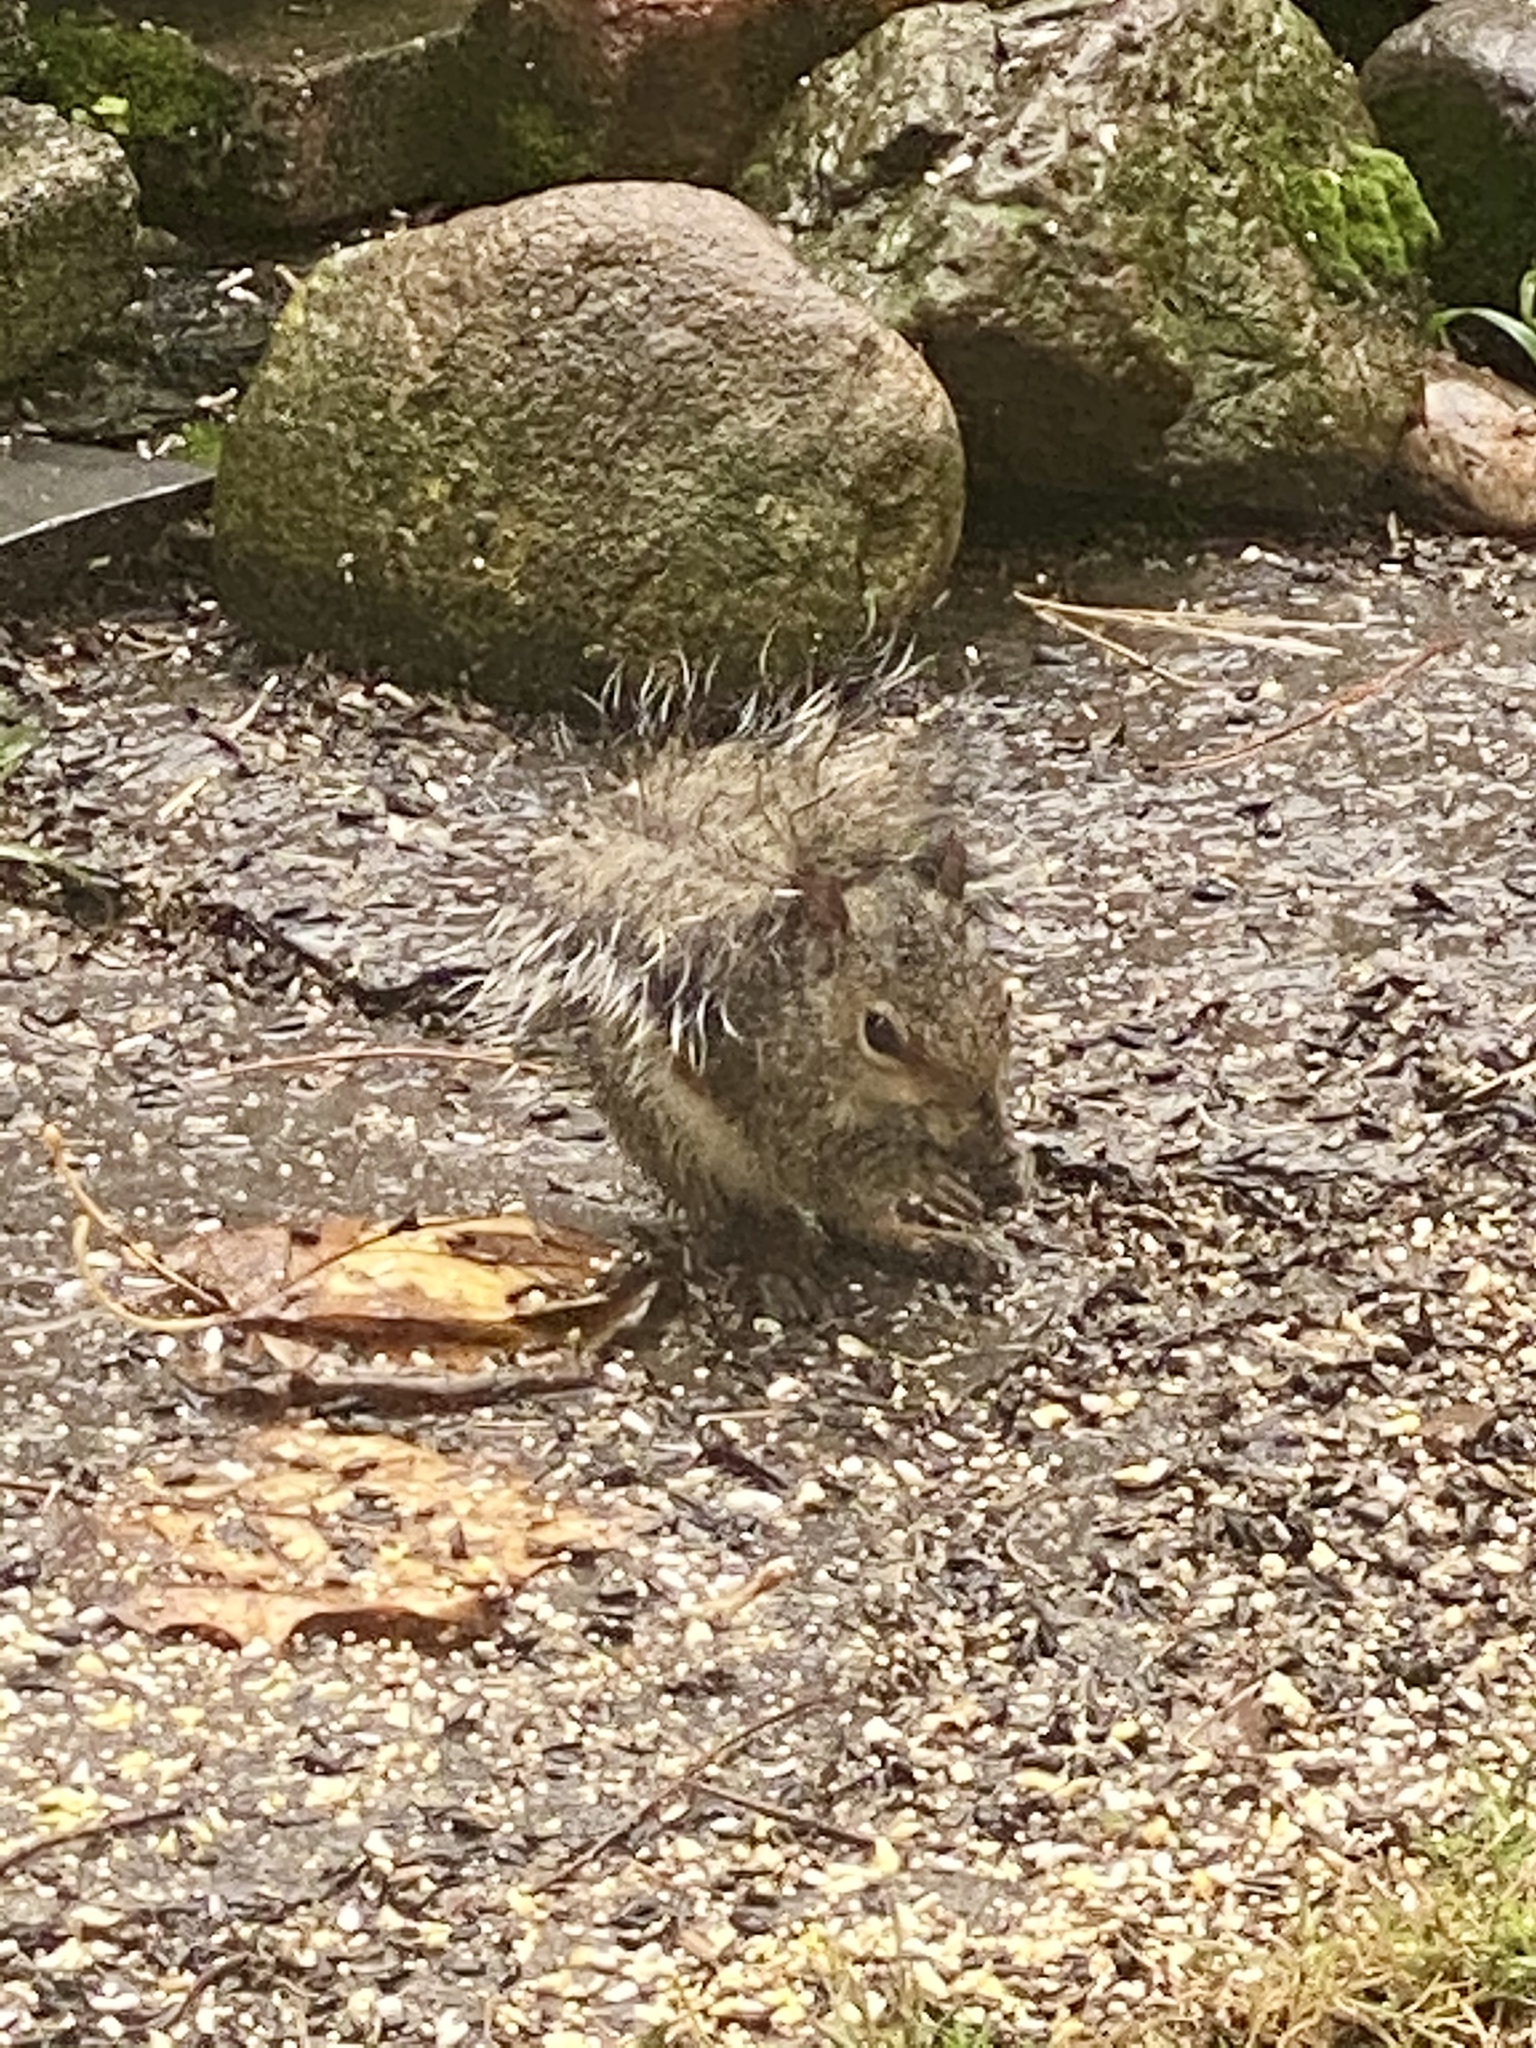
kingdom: Animalia
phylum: Chordata
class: Mammalia
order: Rodentia
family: Sciuridae
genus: Sciurus
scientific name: Sciurus carolinensis
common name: Eastern gray squirrel
